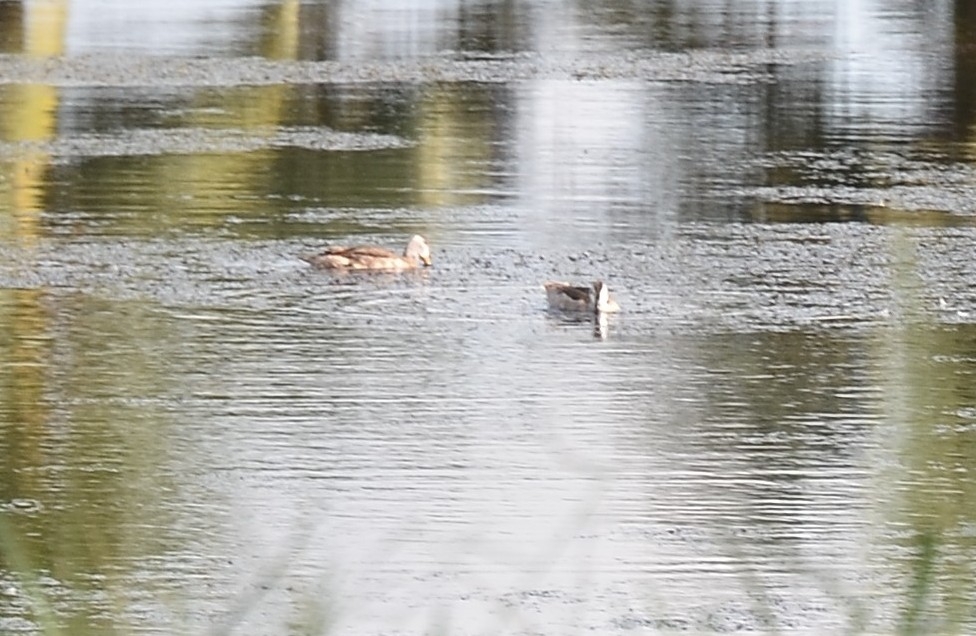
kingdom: Animalia
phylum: Chordata
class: Aves
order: Anseriformes
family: Anatidae
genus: Nettapus
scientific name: Nettapus coromandelianus
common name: Cotton pygmy-goose
